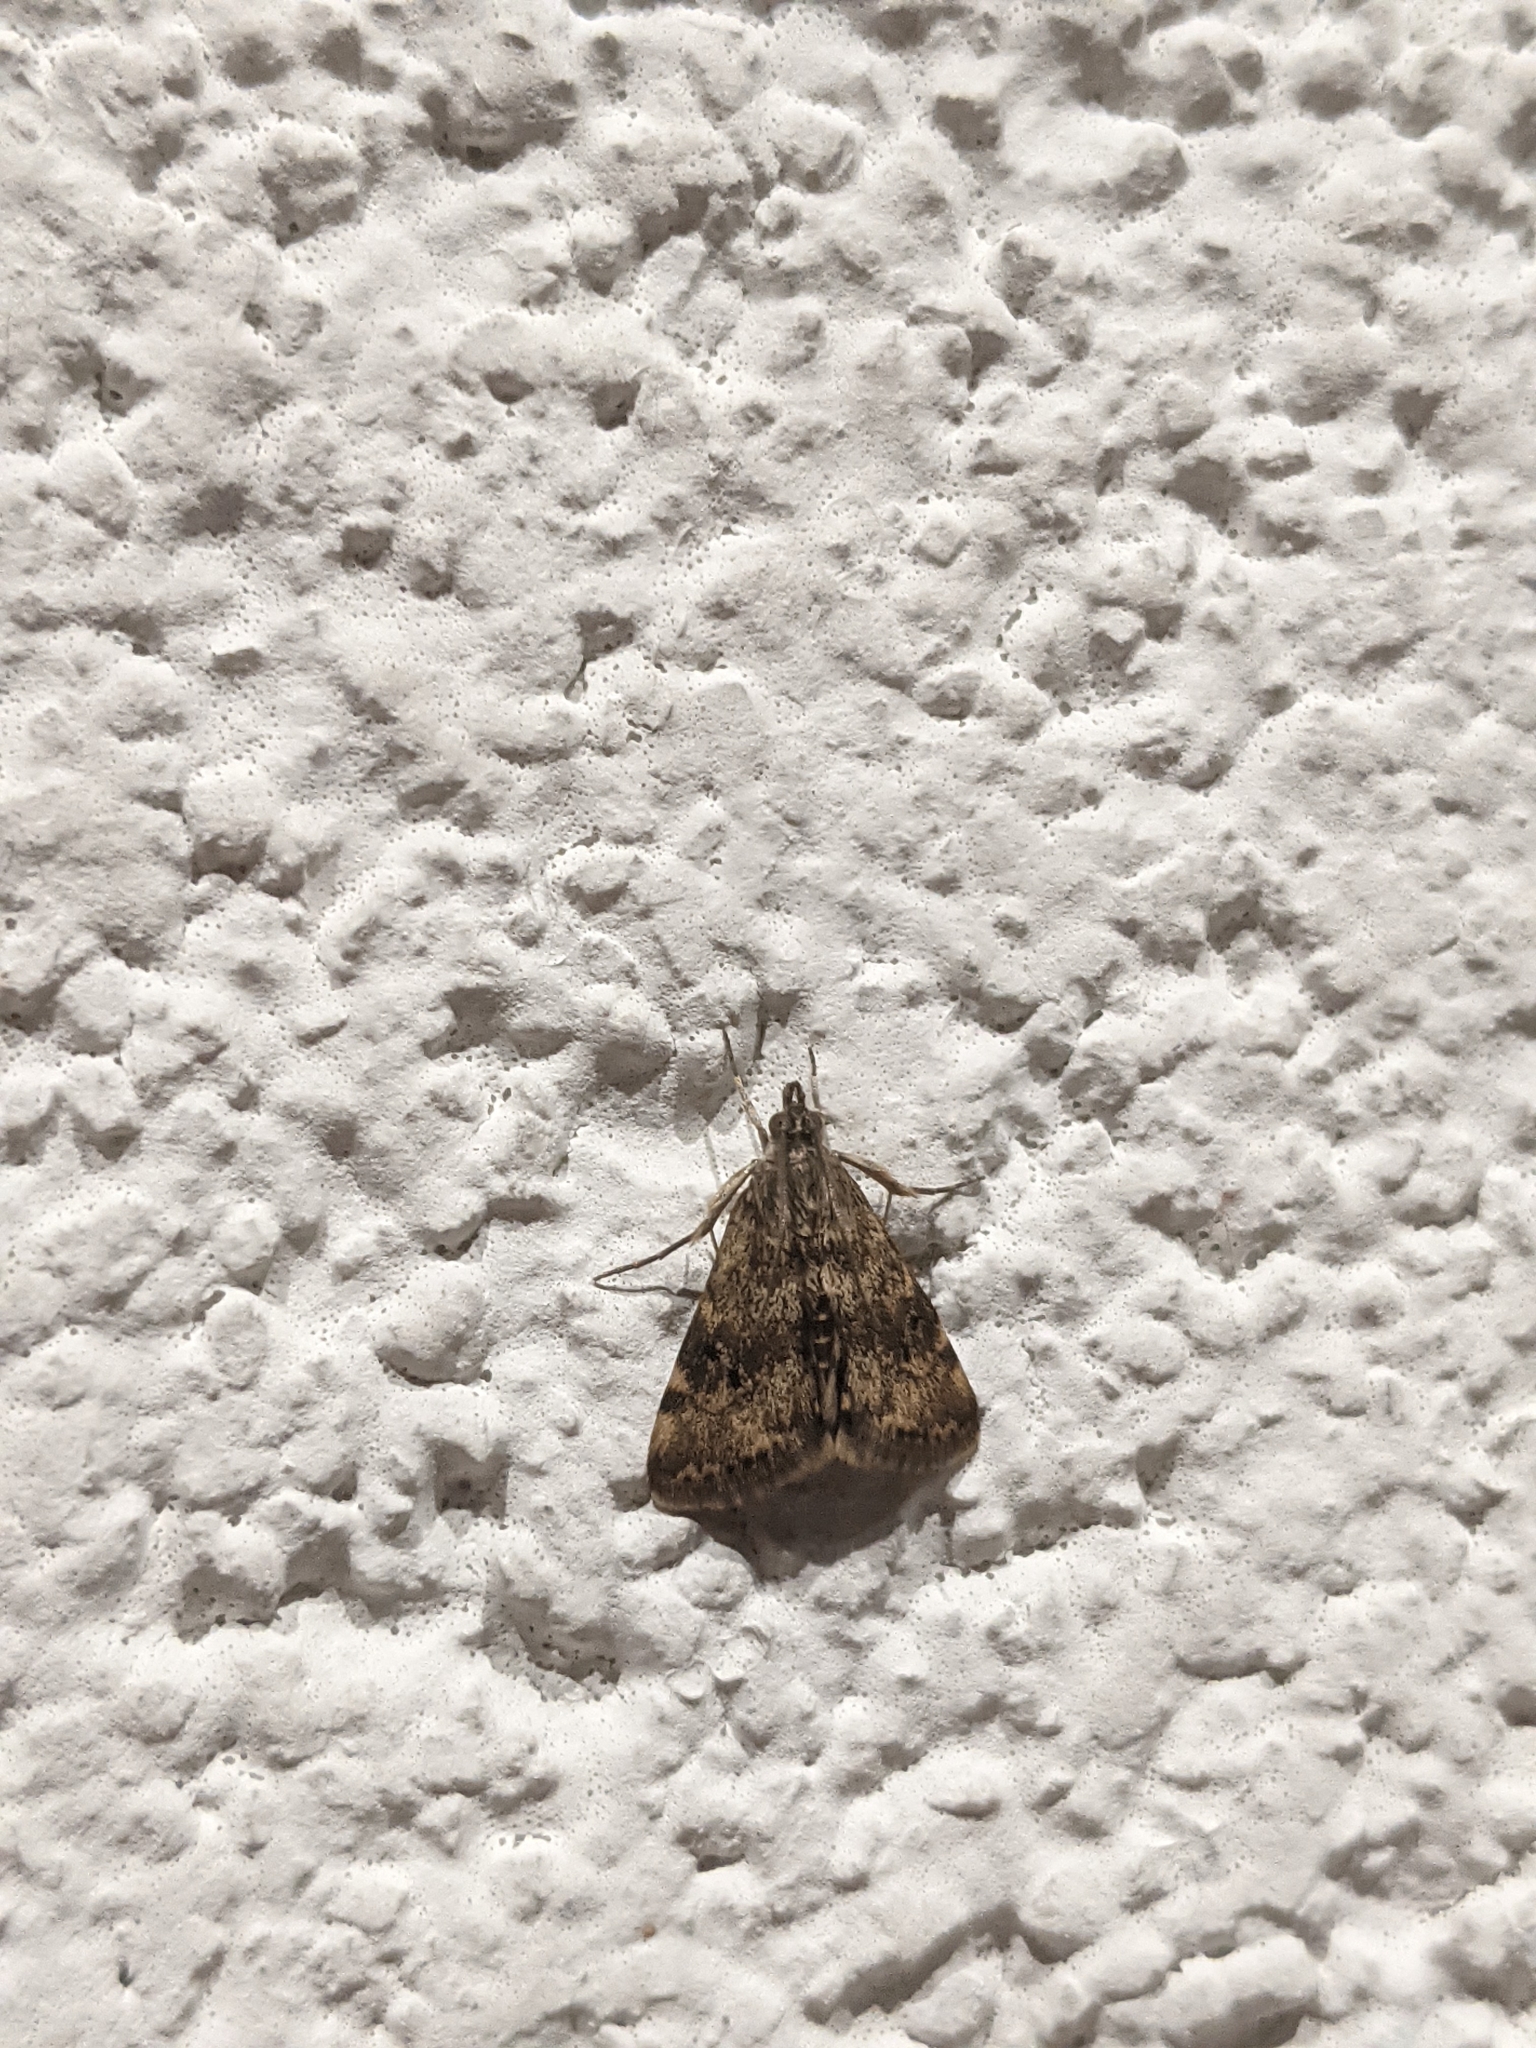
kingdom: Animalia
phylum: Arthropoda
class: Insecta
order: Lepidoptera
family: Crambidae
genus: Noctuelia
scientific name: Noctuelia Aporodes floralis
